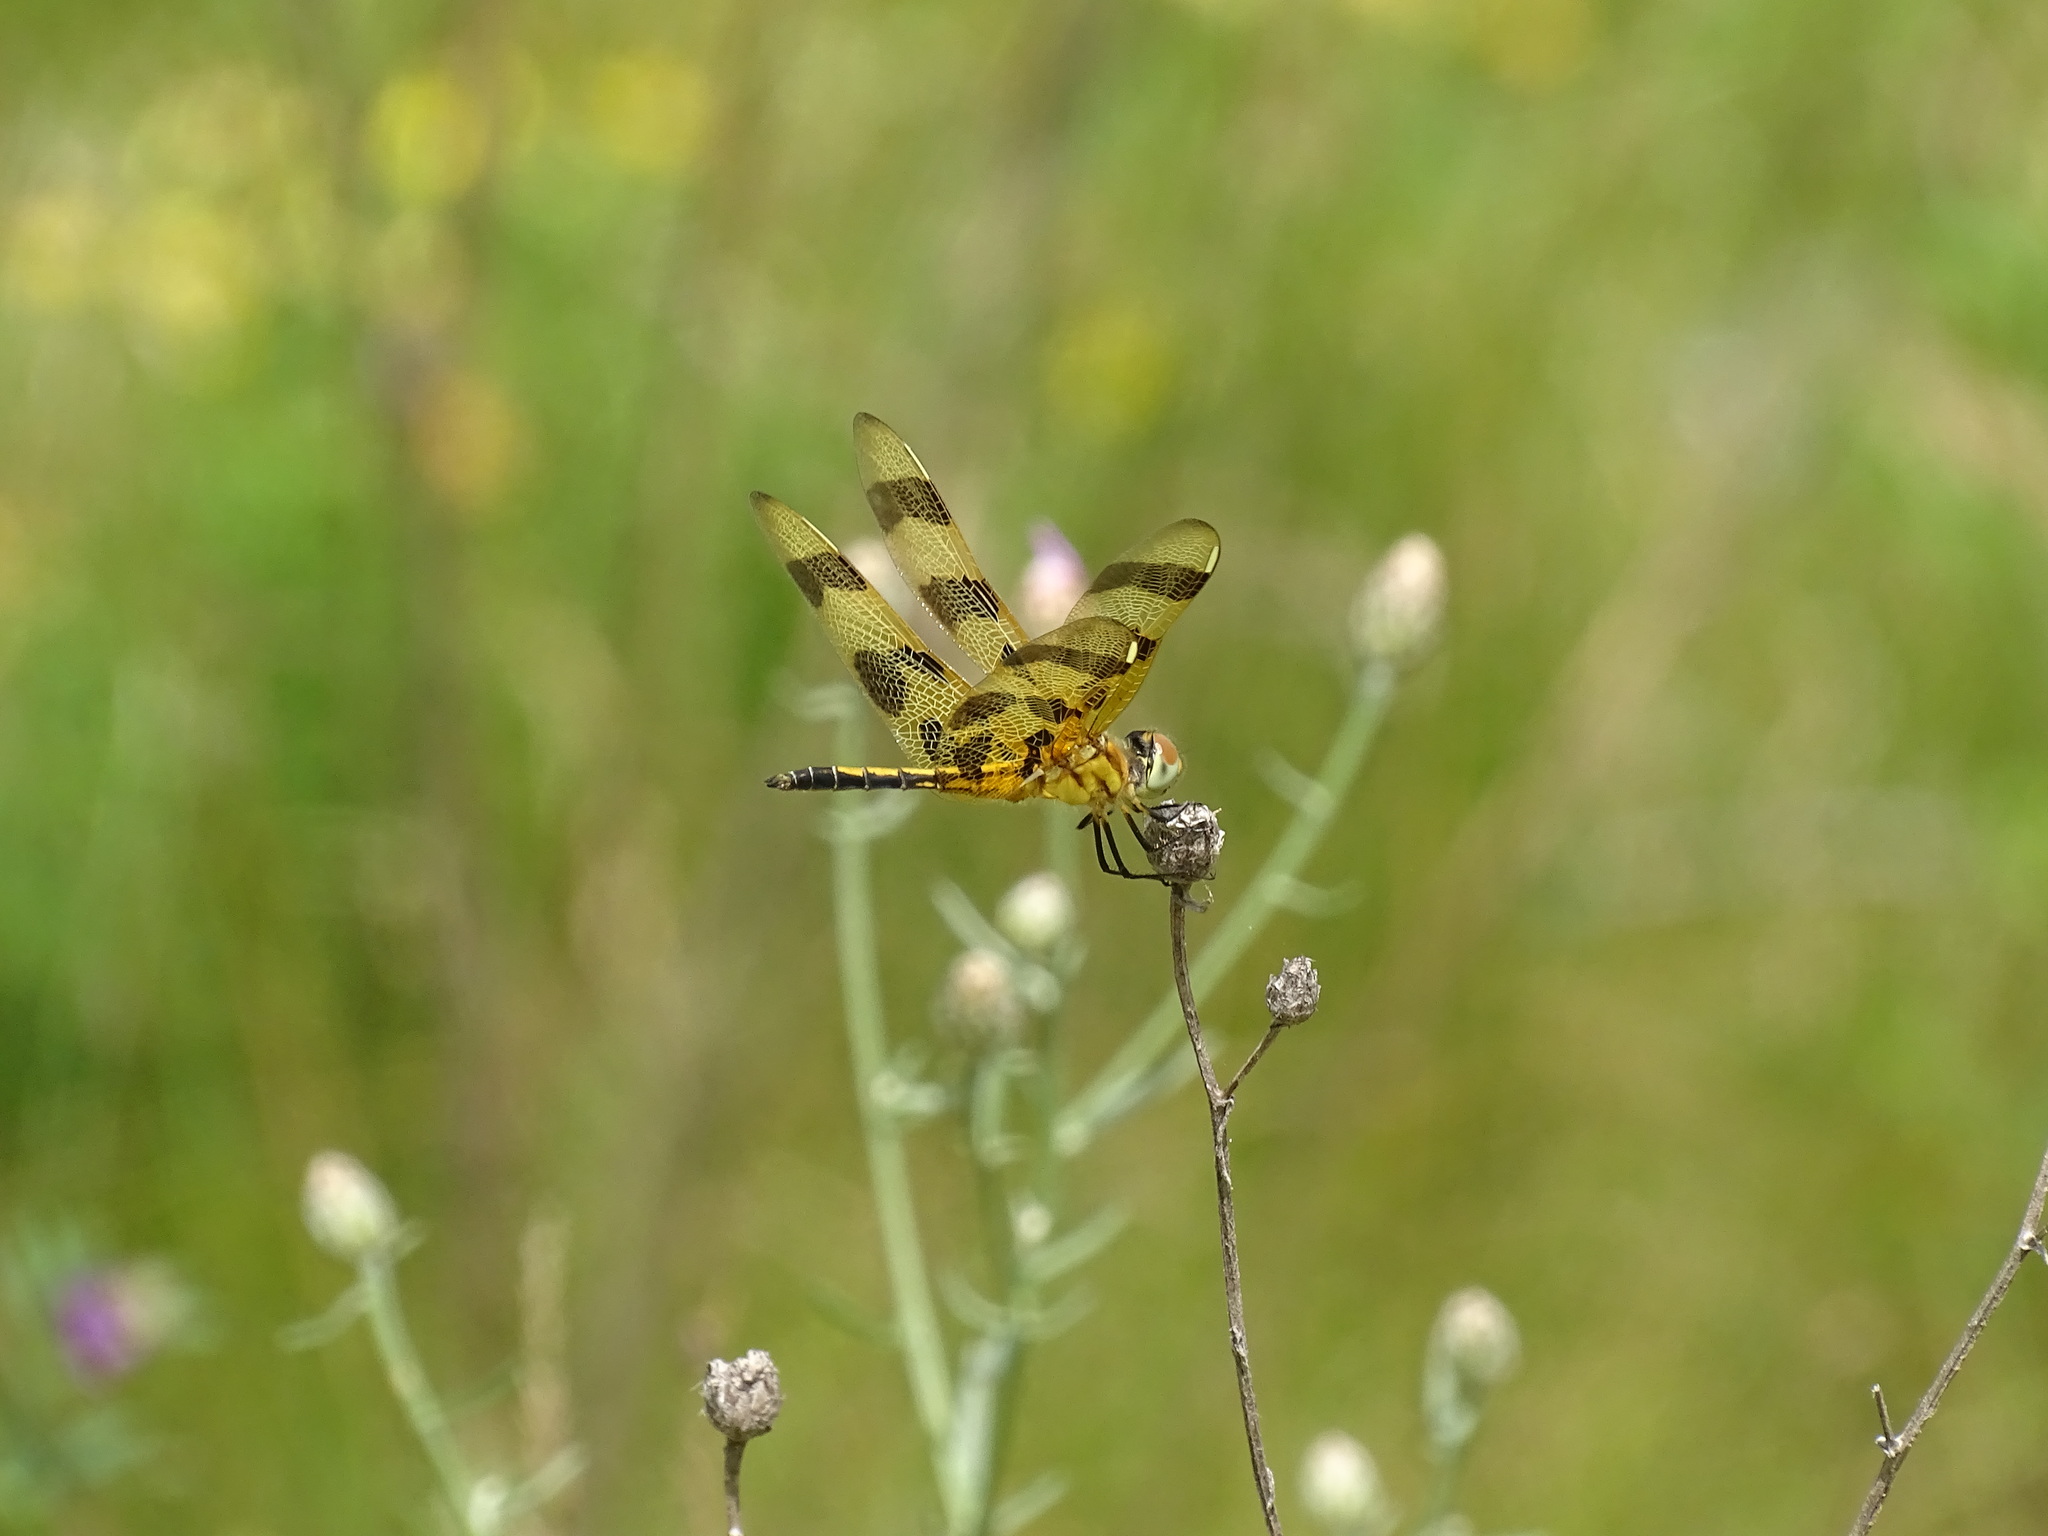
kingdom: Animalia
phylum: Arthropoda
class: Insecta
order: Odonata
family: Libellulidae
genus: Celithemis
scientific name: Celithemis eponina
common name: Halloween pennant
